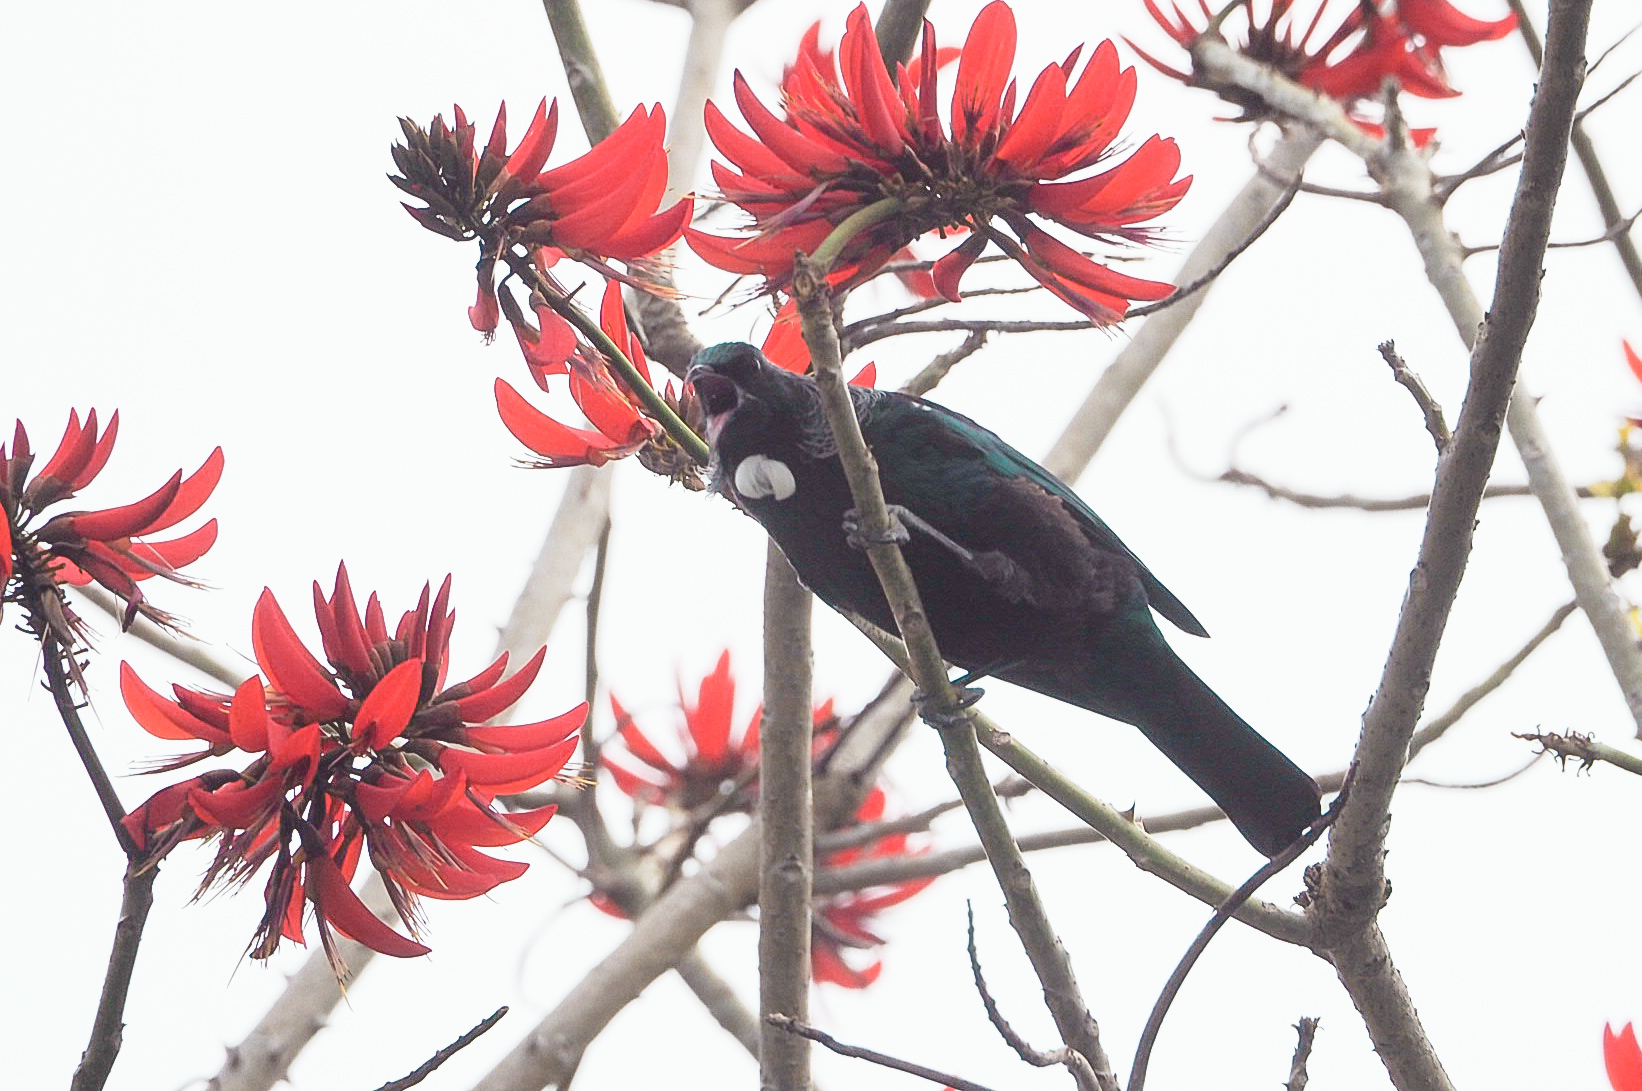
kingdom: Animalia
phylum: Chordata
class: Aves
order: Passeriformes
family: Meliphagidae
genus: Prosthemadera
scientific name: Prosthemadera novaeseelandiae
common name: Tui
